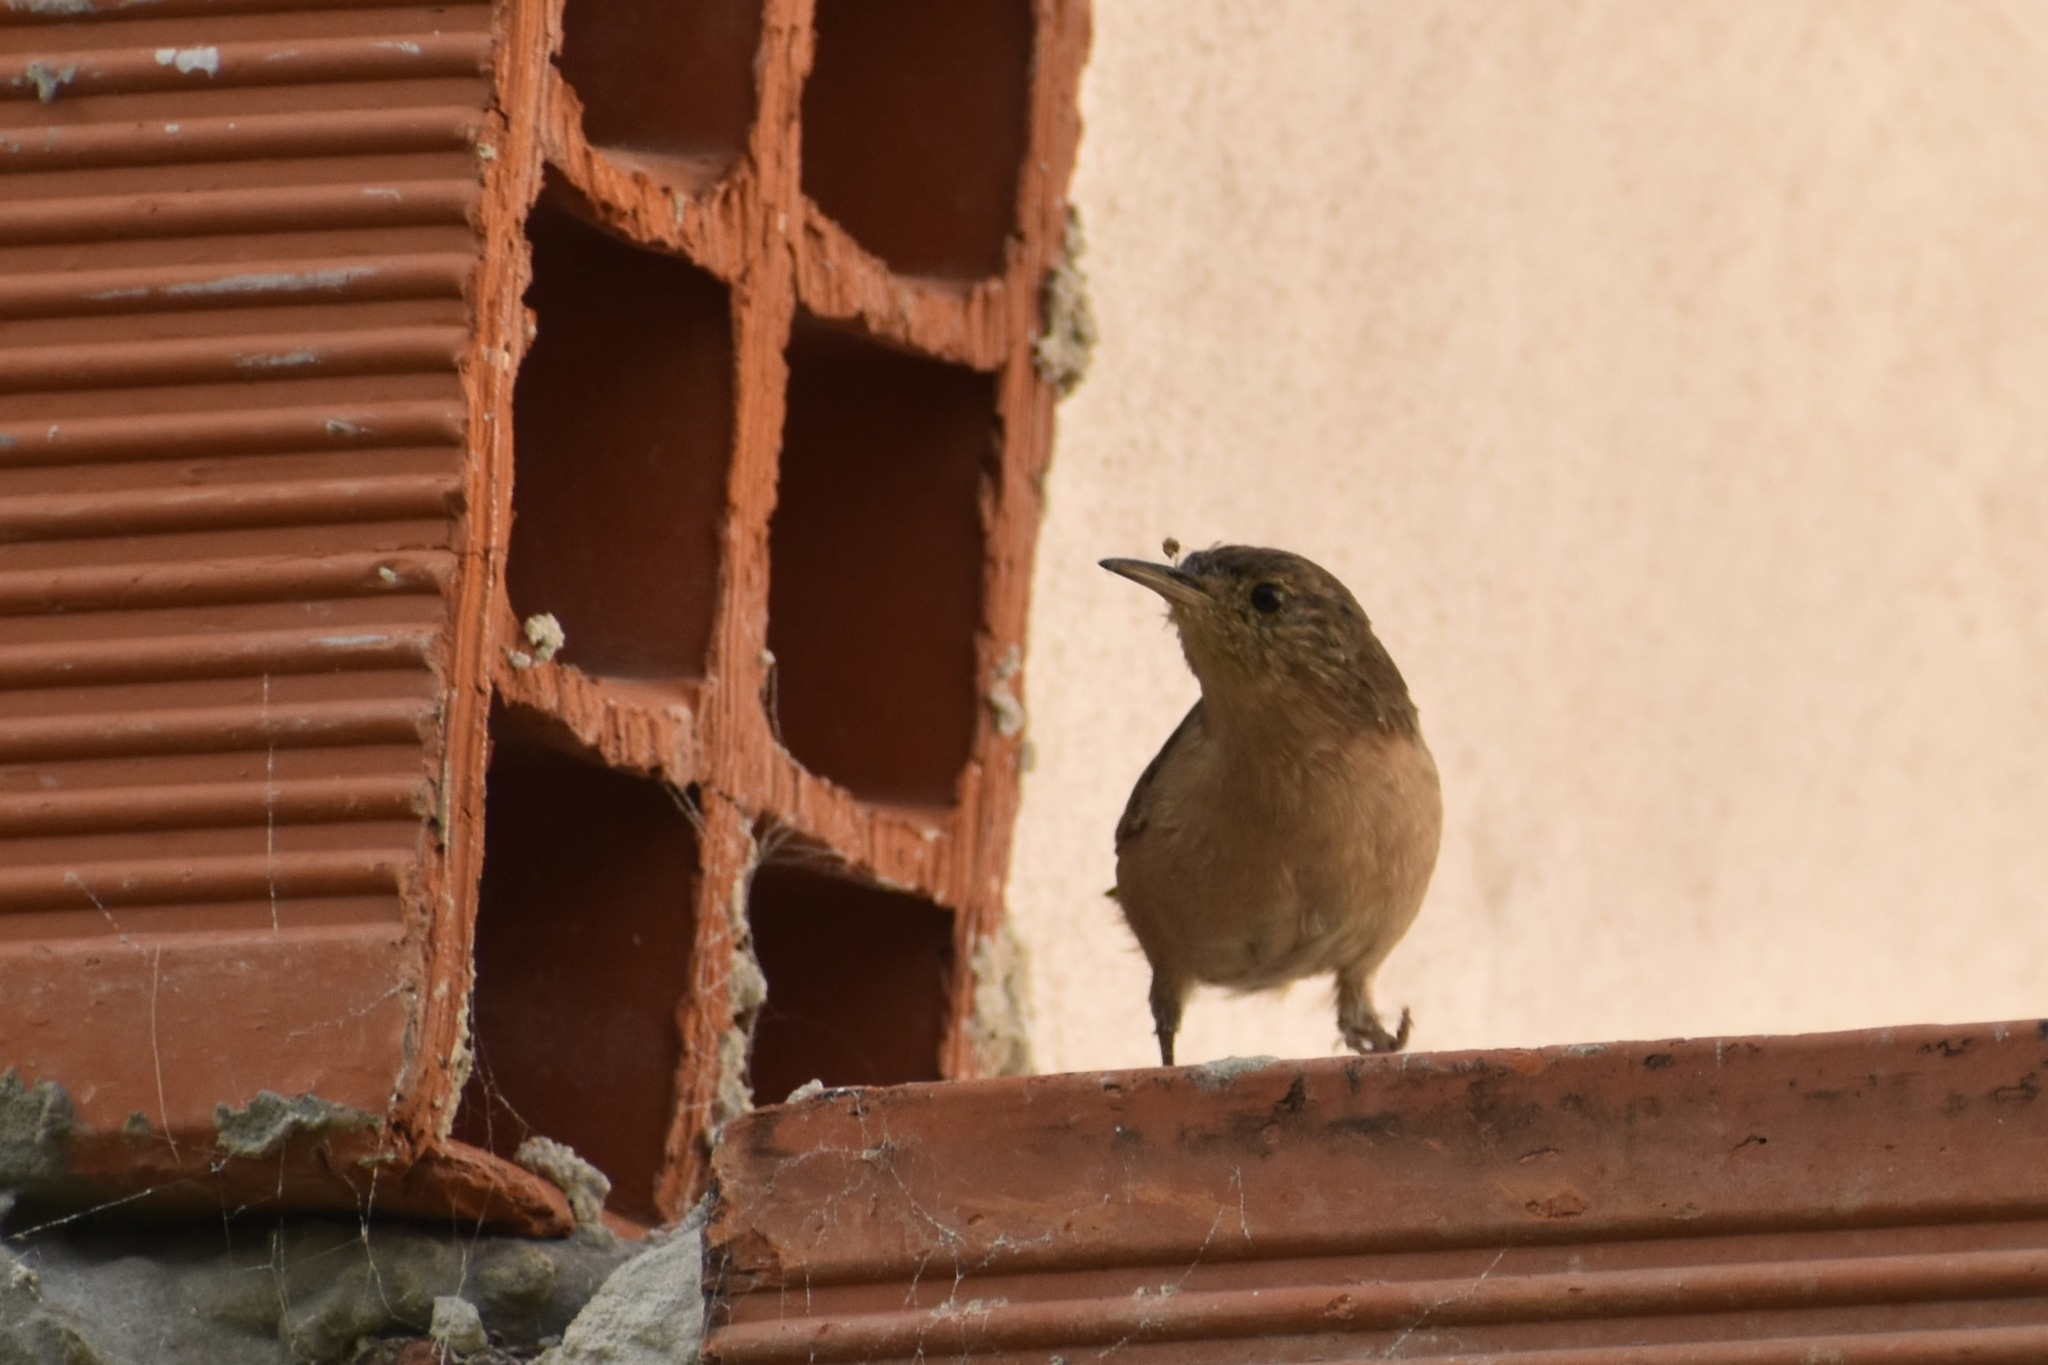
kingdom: Animalia
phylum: Chordata
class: Aves
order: Passeriformes
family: Troglodytidae
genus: Troglodytes
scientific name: Troglodytes aedon
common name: House wren
